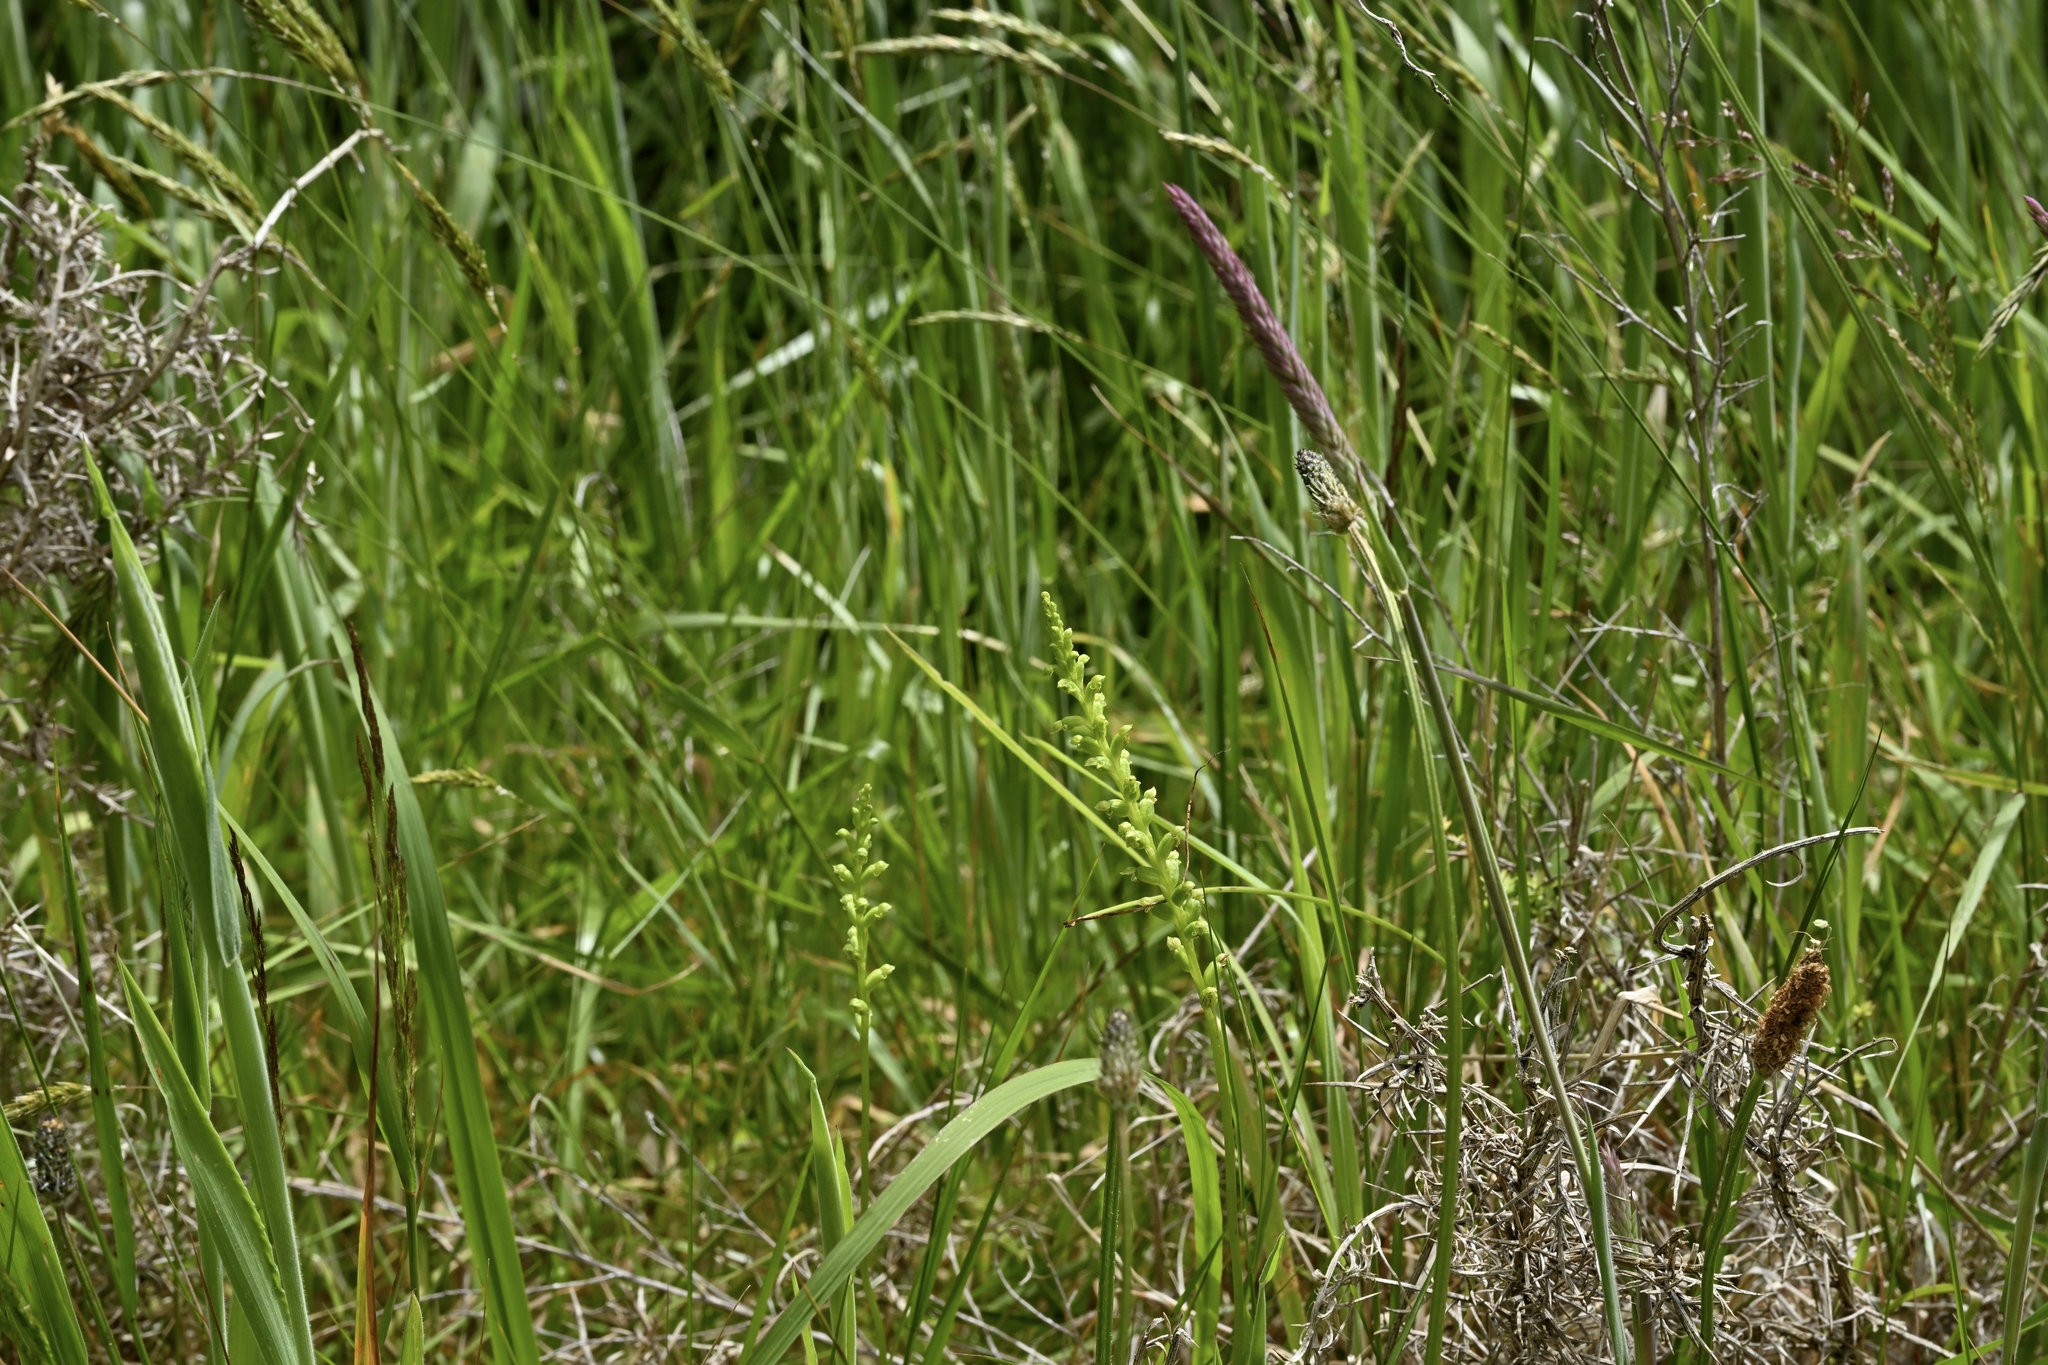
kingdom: Plantae
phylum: Tracheophyta
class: Liliopsida
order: Asparagales
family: Orchidaceae
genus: Microtis
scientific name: Microtis unifolia
